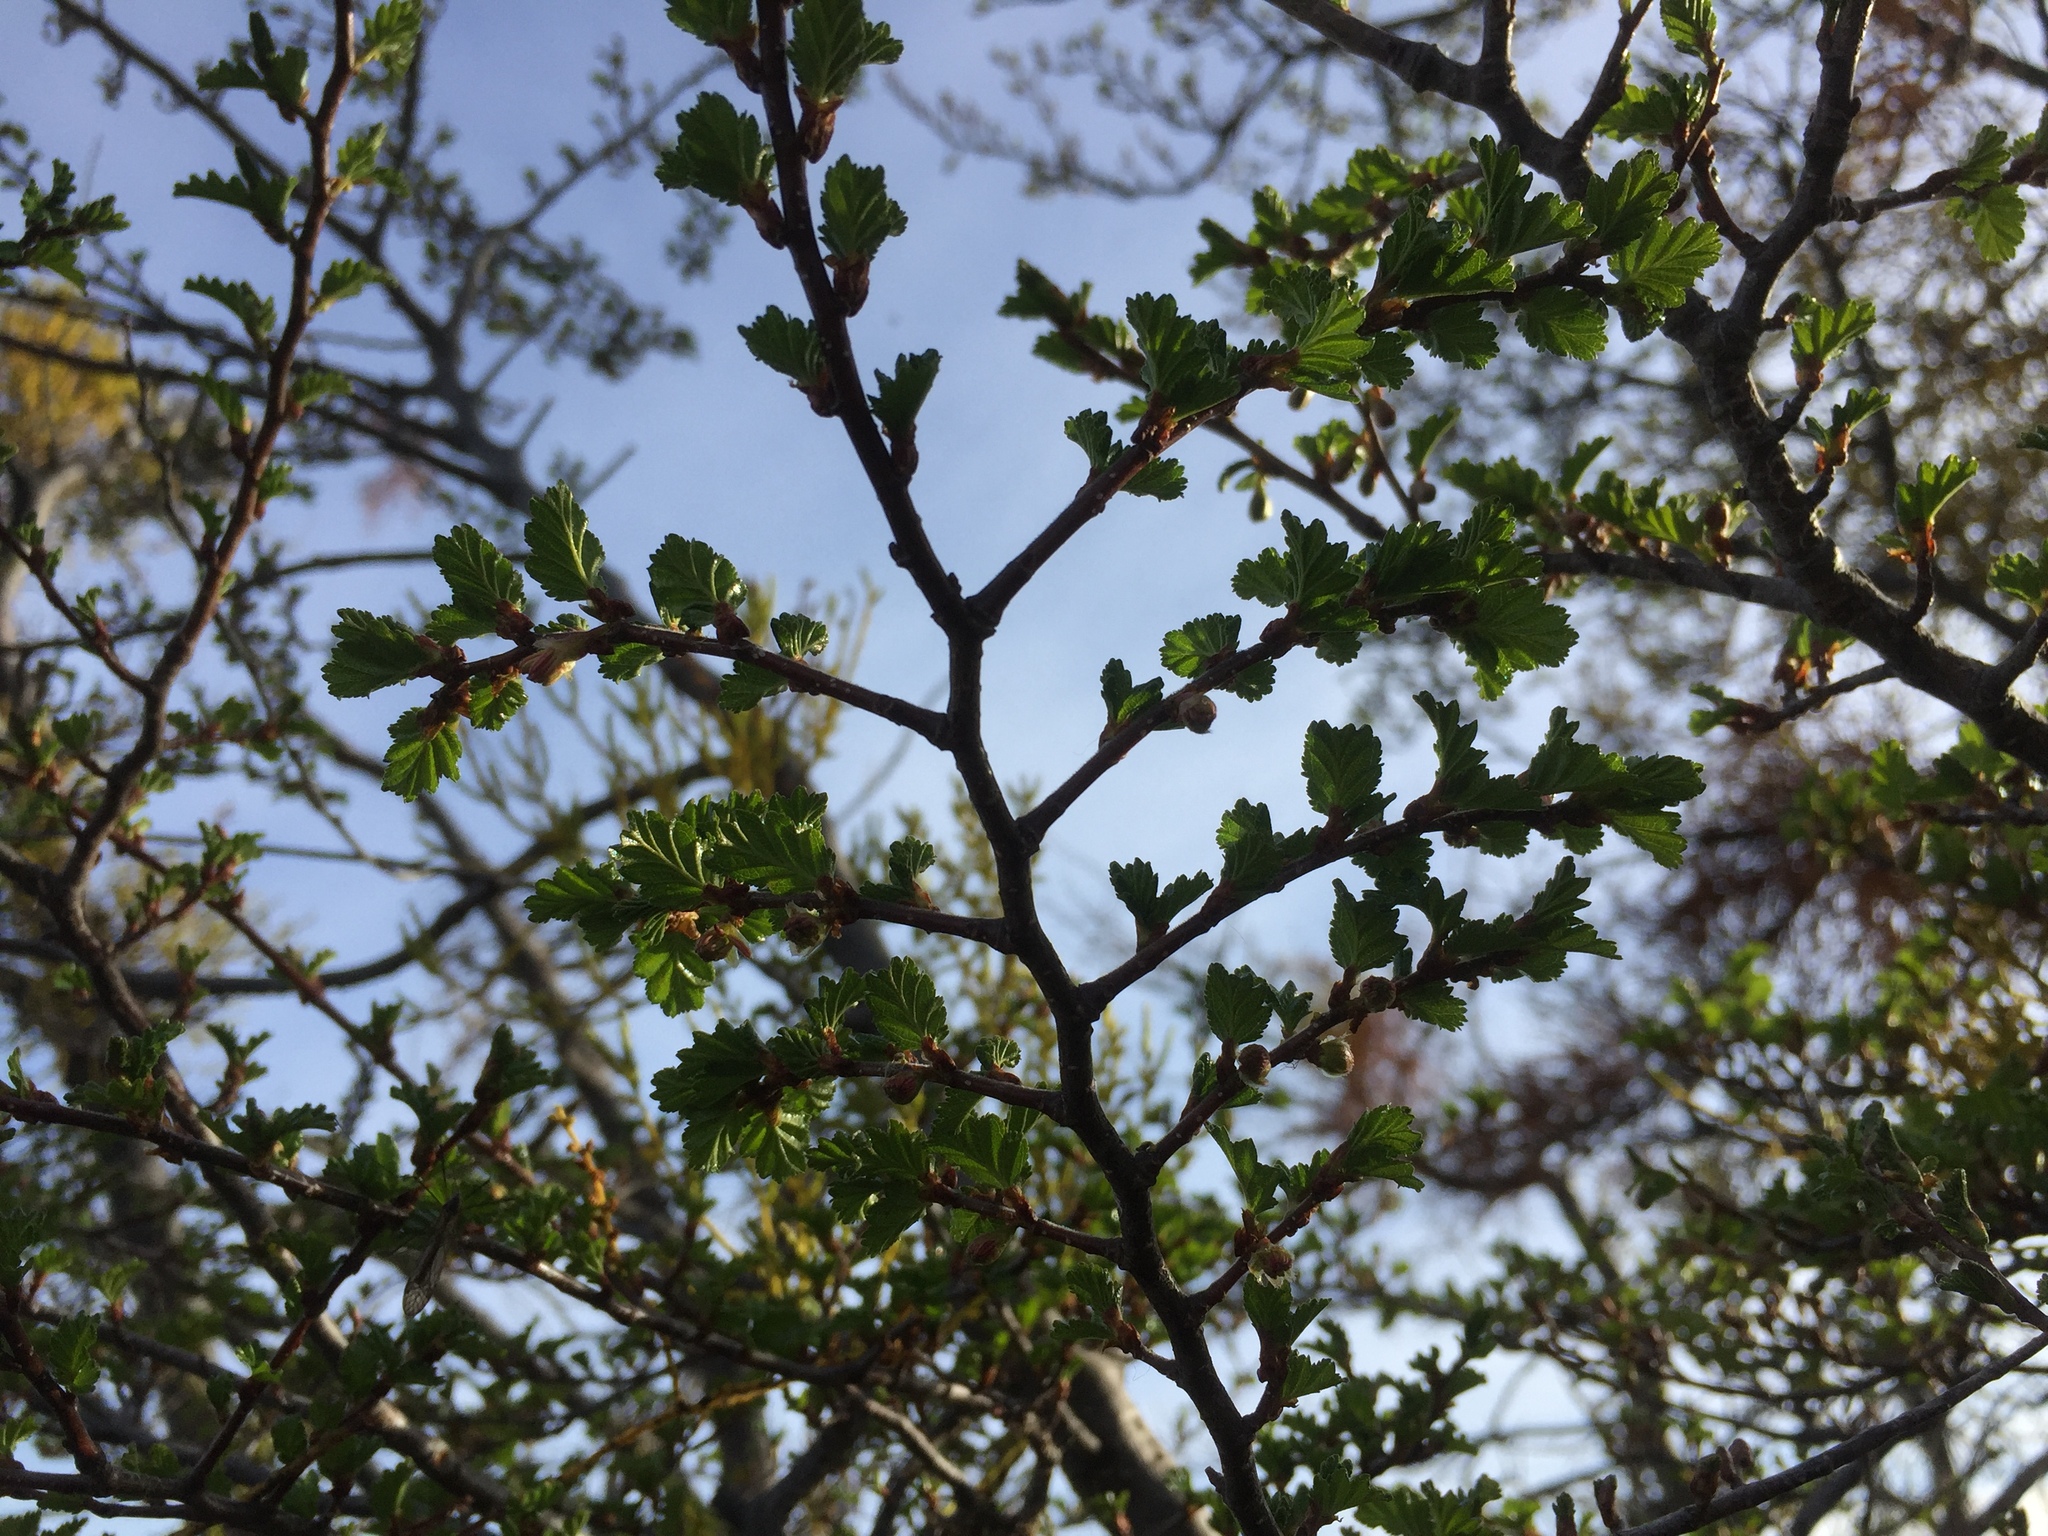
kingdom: Plantae
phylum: Tracheophyta
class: Magnoliopsida
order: Fagales
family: Nothofagaceae
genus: Nothofagus
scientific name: Nothofagus antarctica
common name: Antarctic beech
